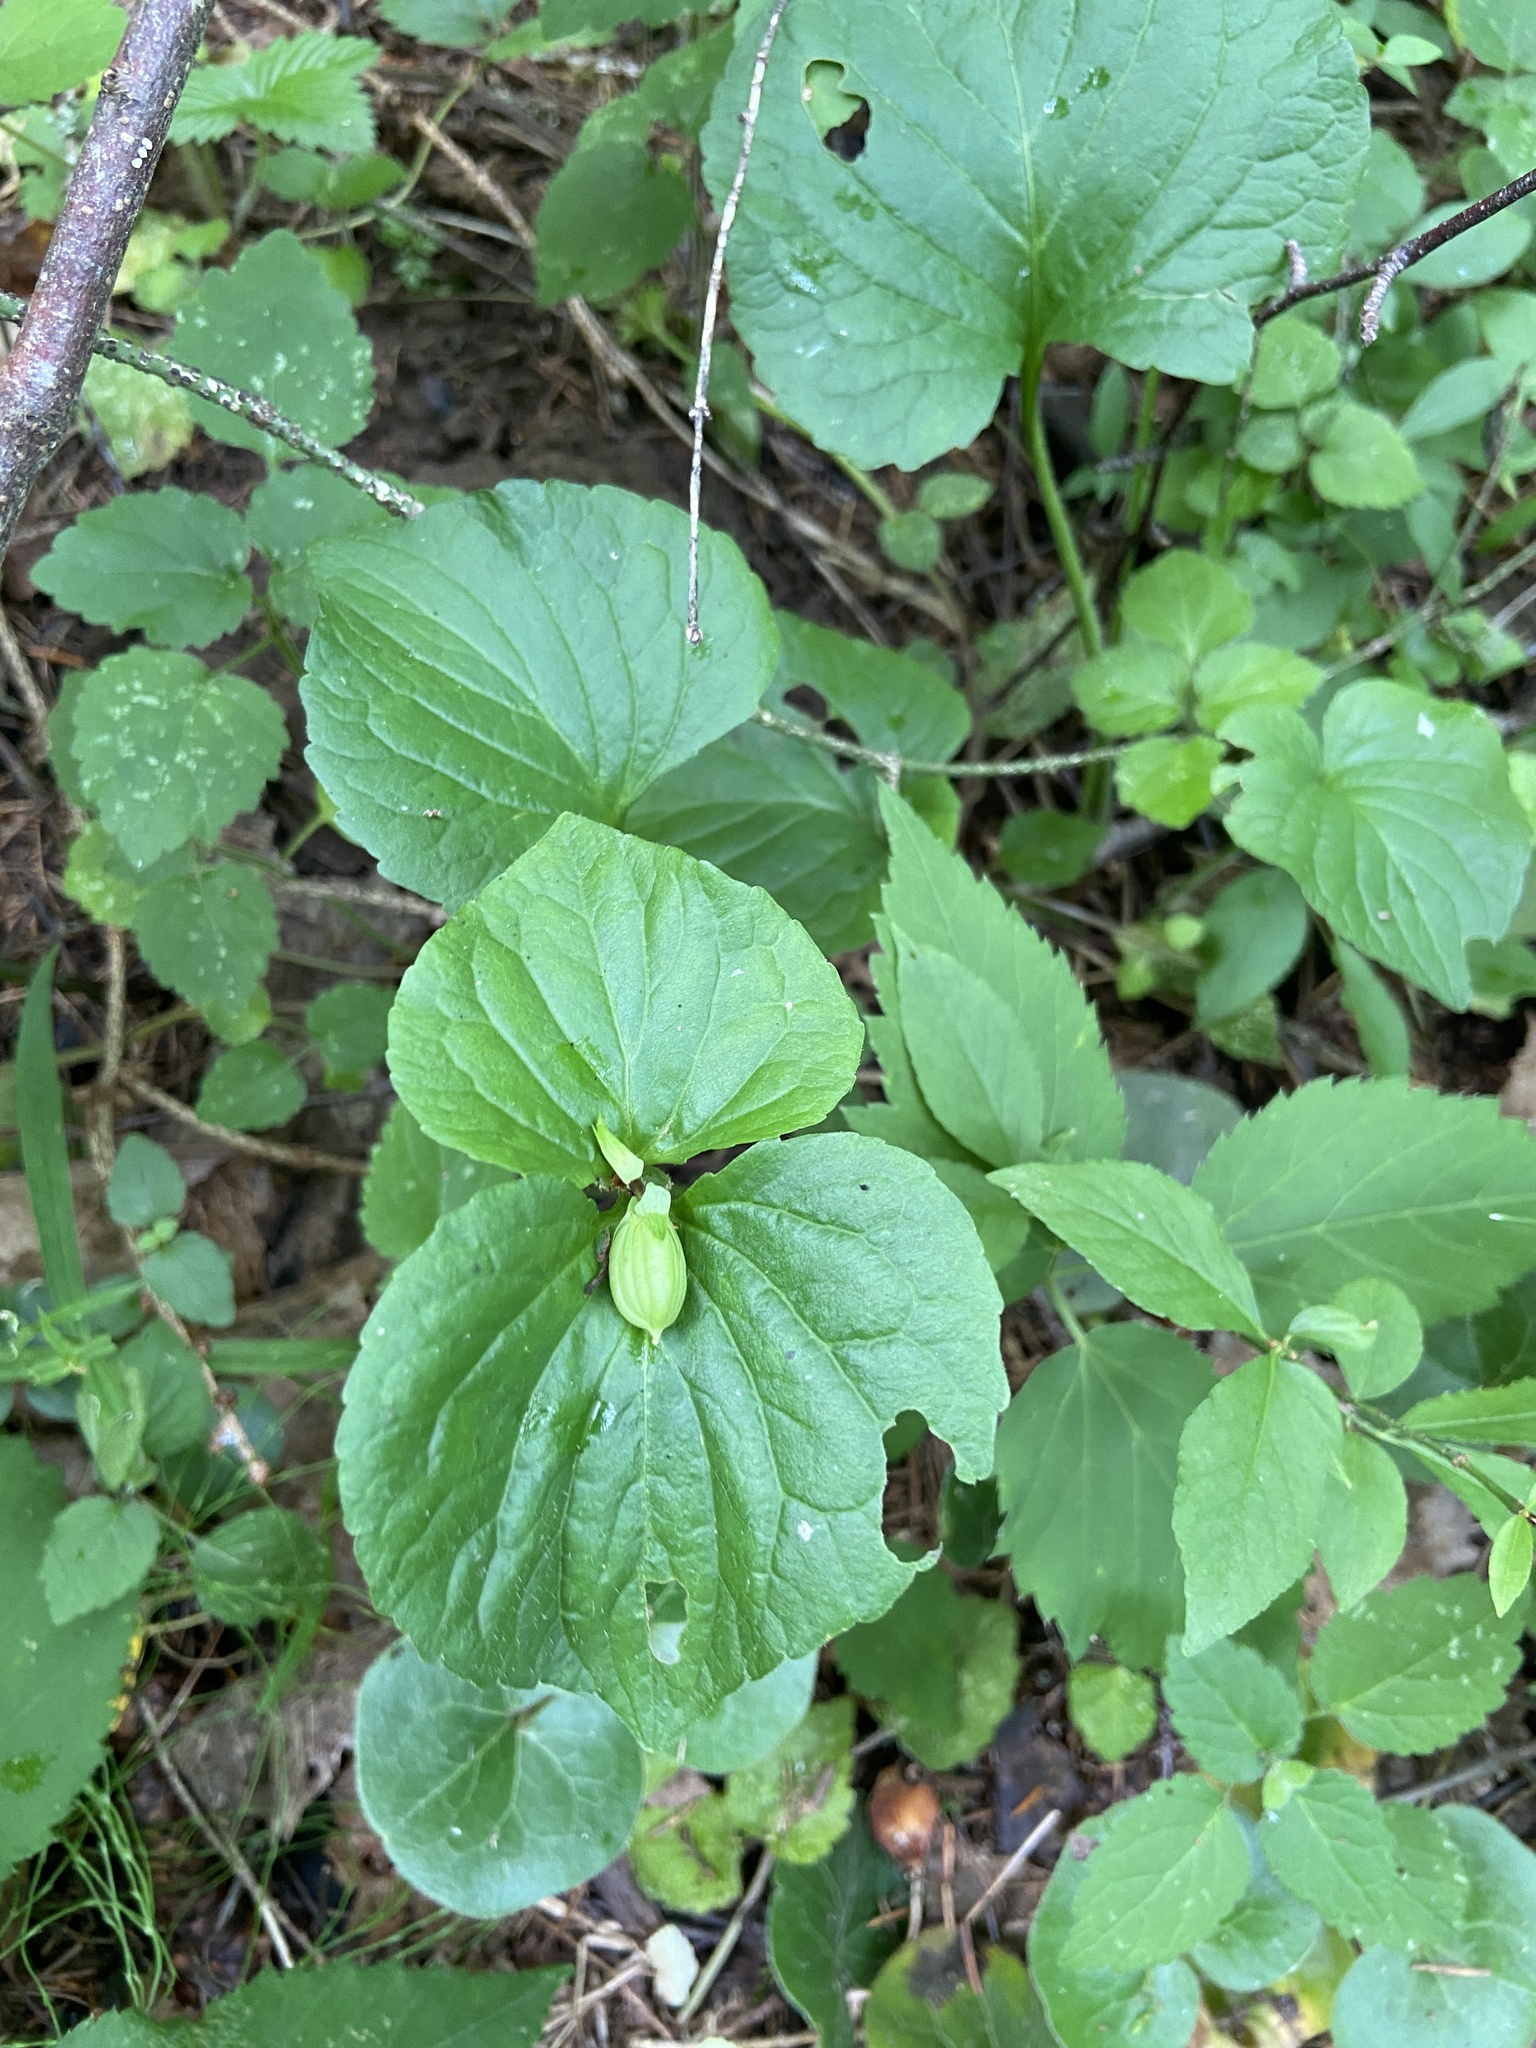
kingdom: Plantae
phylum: Tracheophyta
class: Magnoliopsida
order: Malpighiales
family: Violaceae
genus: Viola
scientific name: Viola mirabilis
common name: Wonder violet
